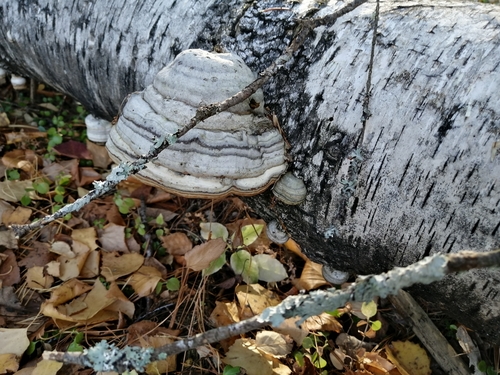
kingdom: Fungi
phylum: Basidiomycota
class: Agaricomycetes
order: Polyporales
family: Polyporaceae
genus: Fomes
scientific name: Fomes fomentarius
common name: Hoof fungus
